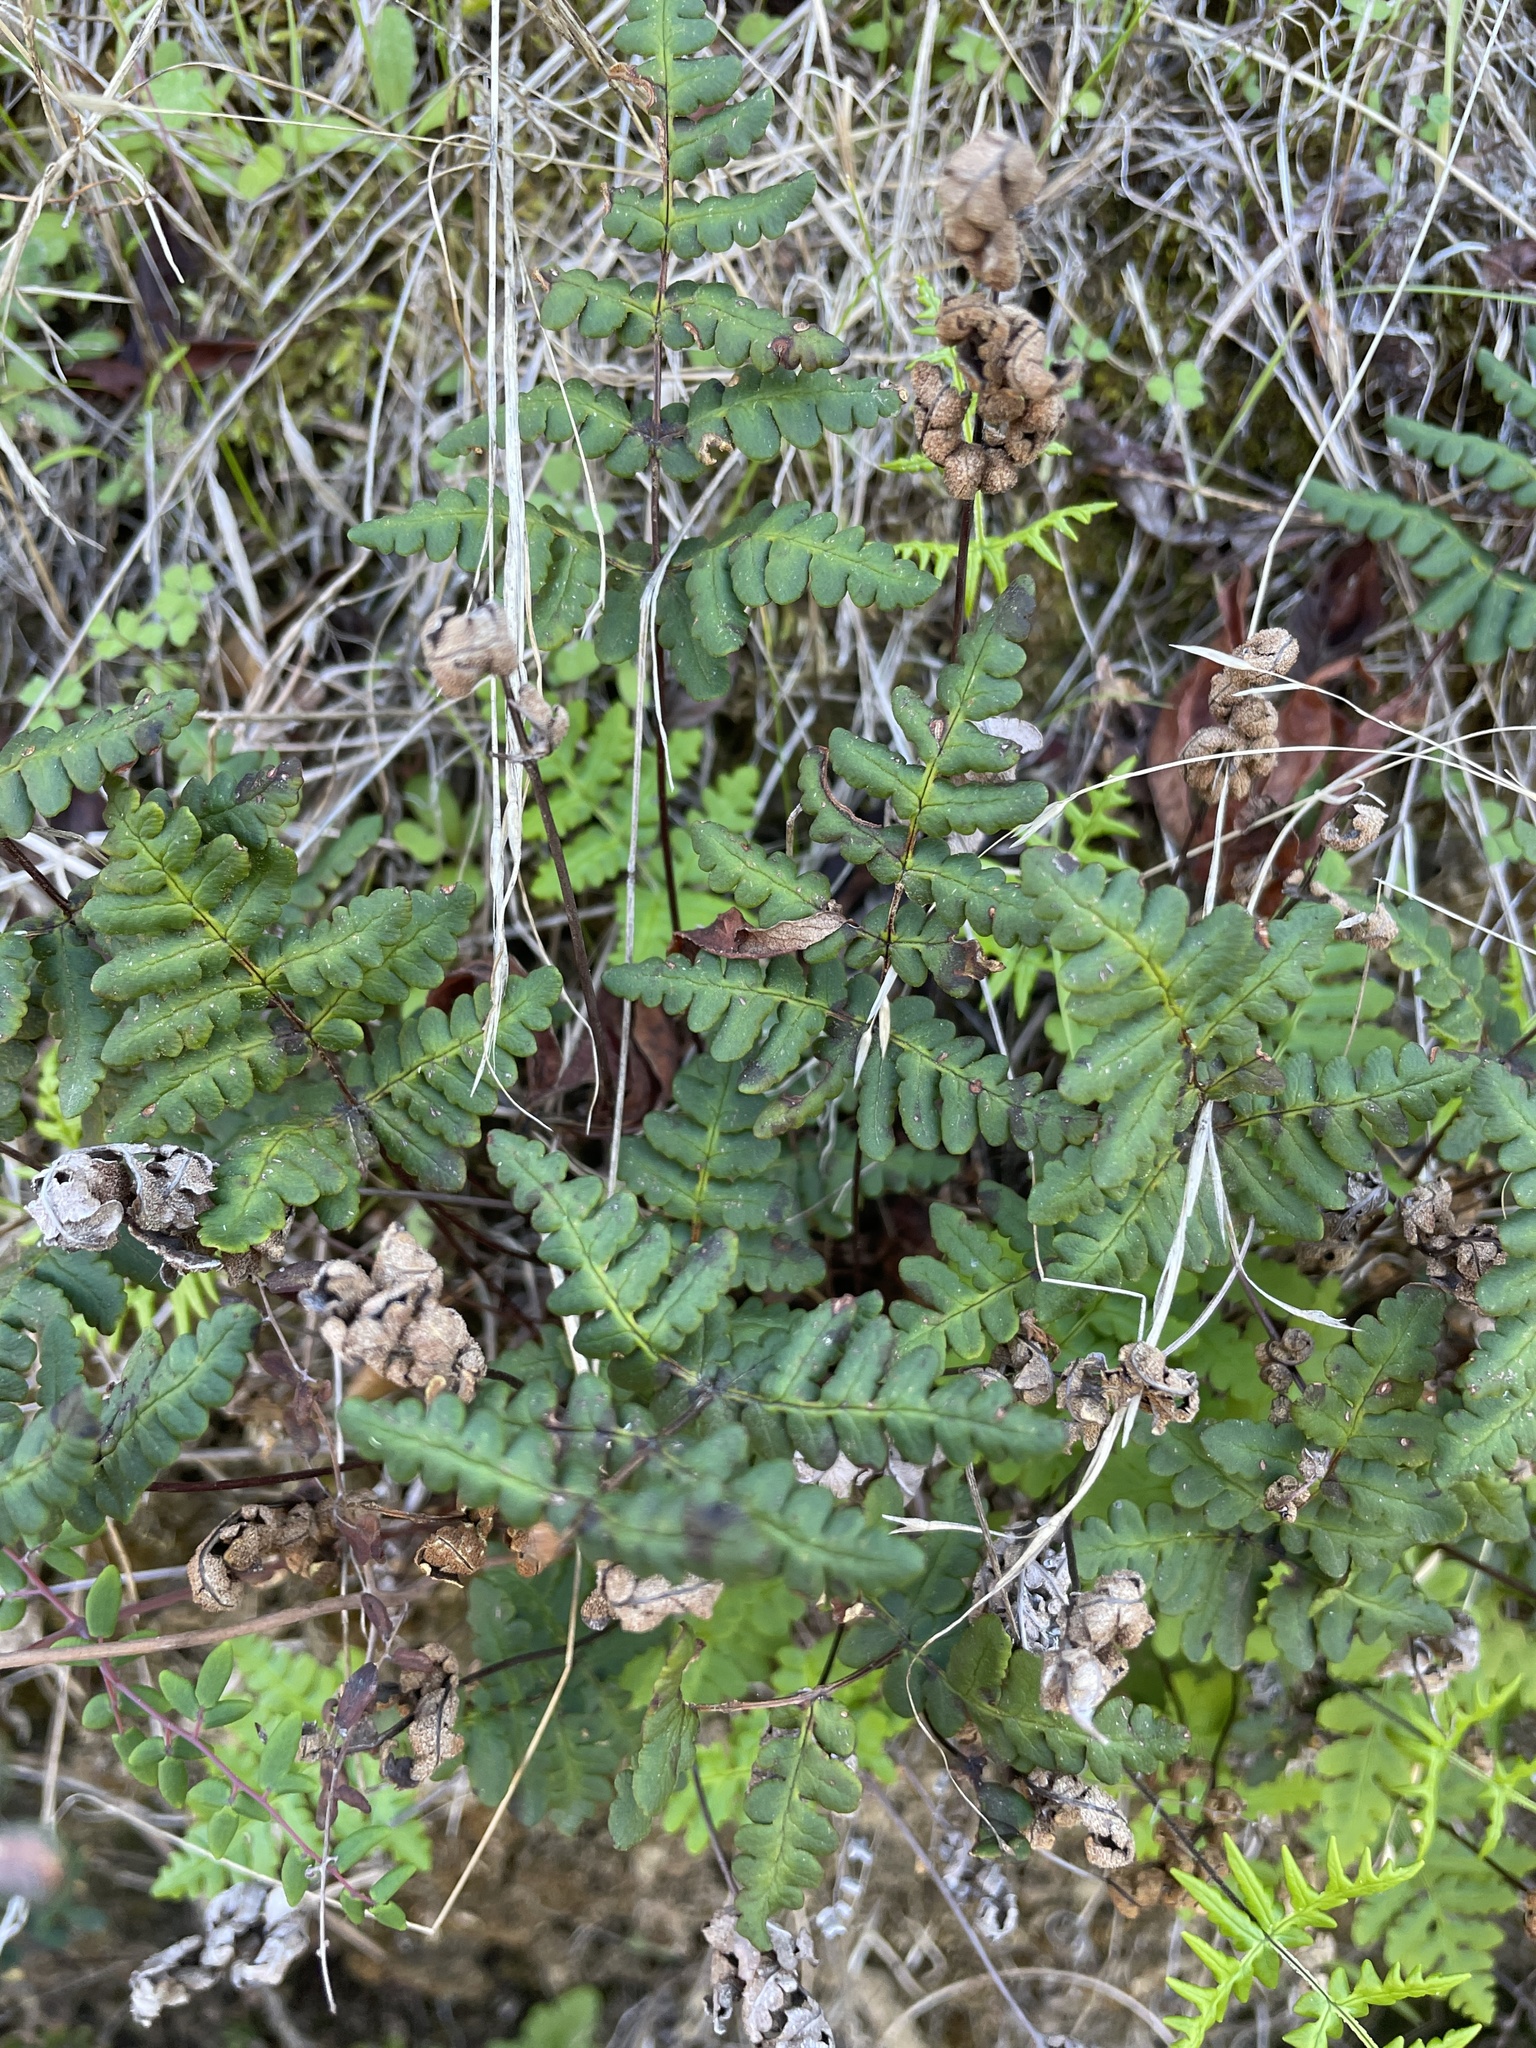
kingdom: Plantae
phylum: Tracheophyta
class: Polypodiopsida
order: Polypodiales
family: Pteridaceae
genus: Pentagramma
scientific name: Pentagramma triangularis
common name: Gold fern
